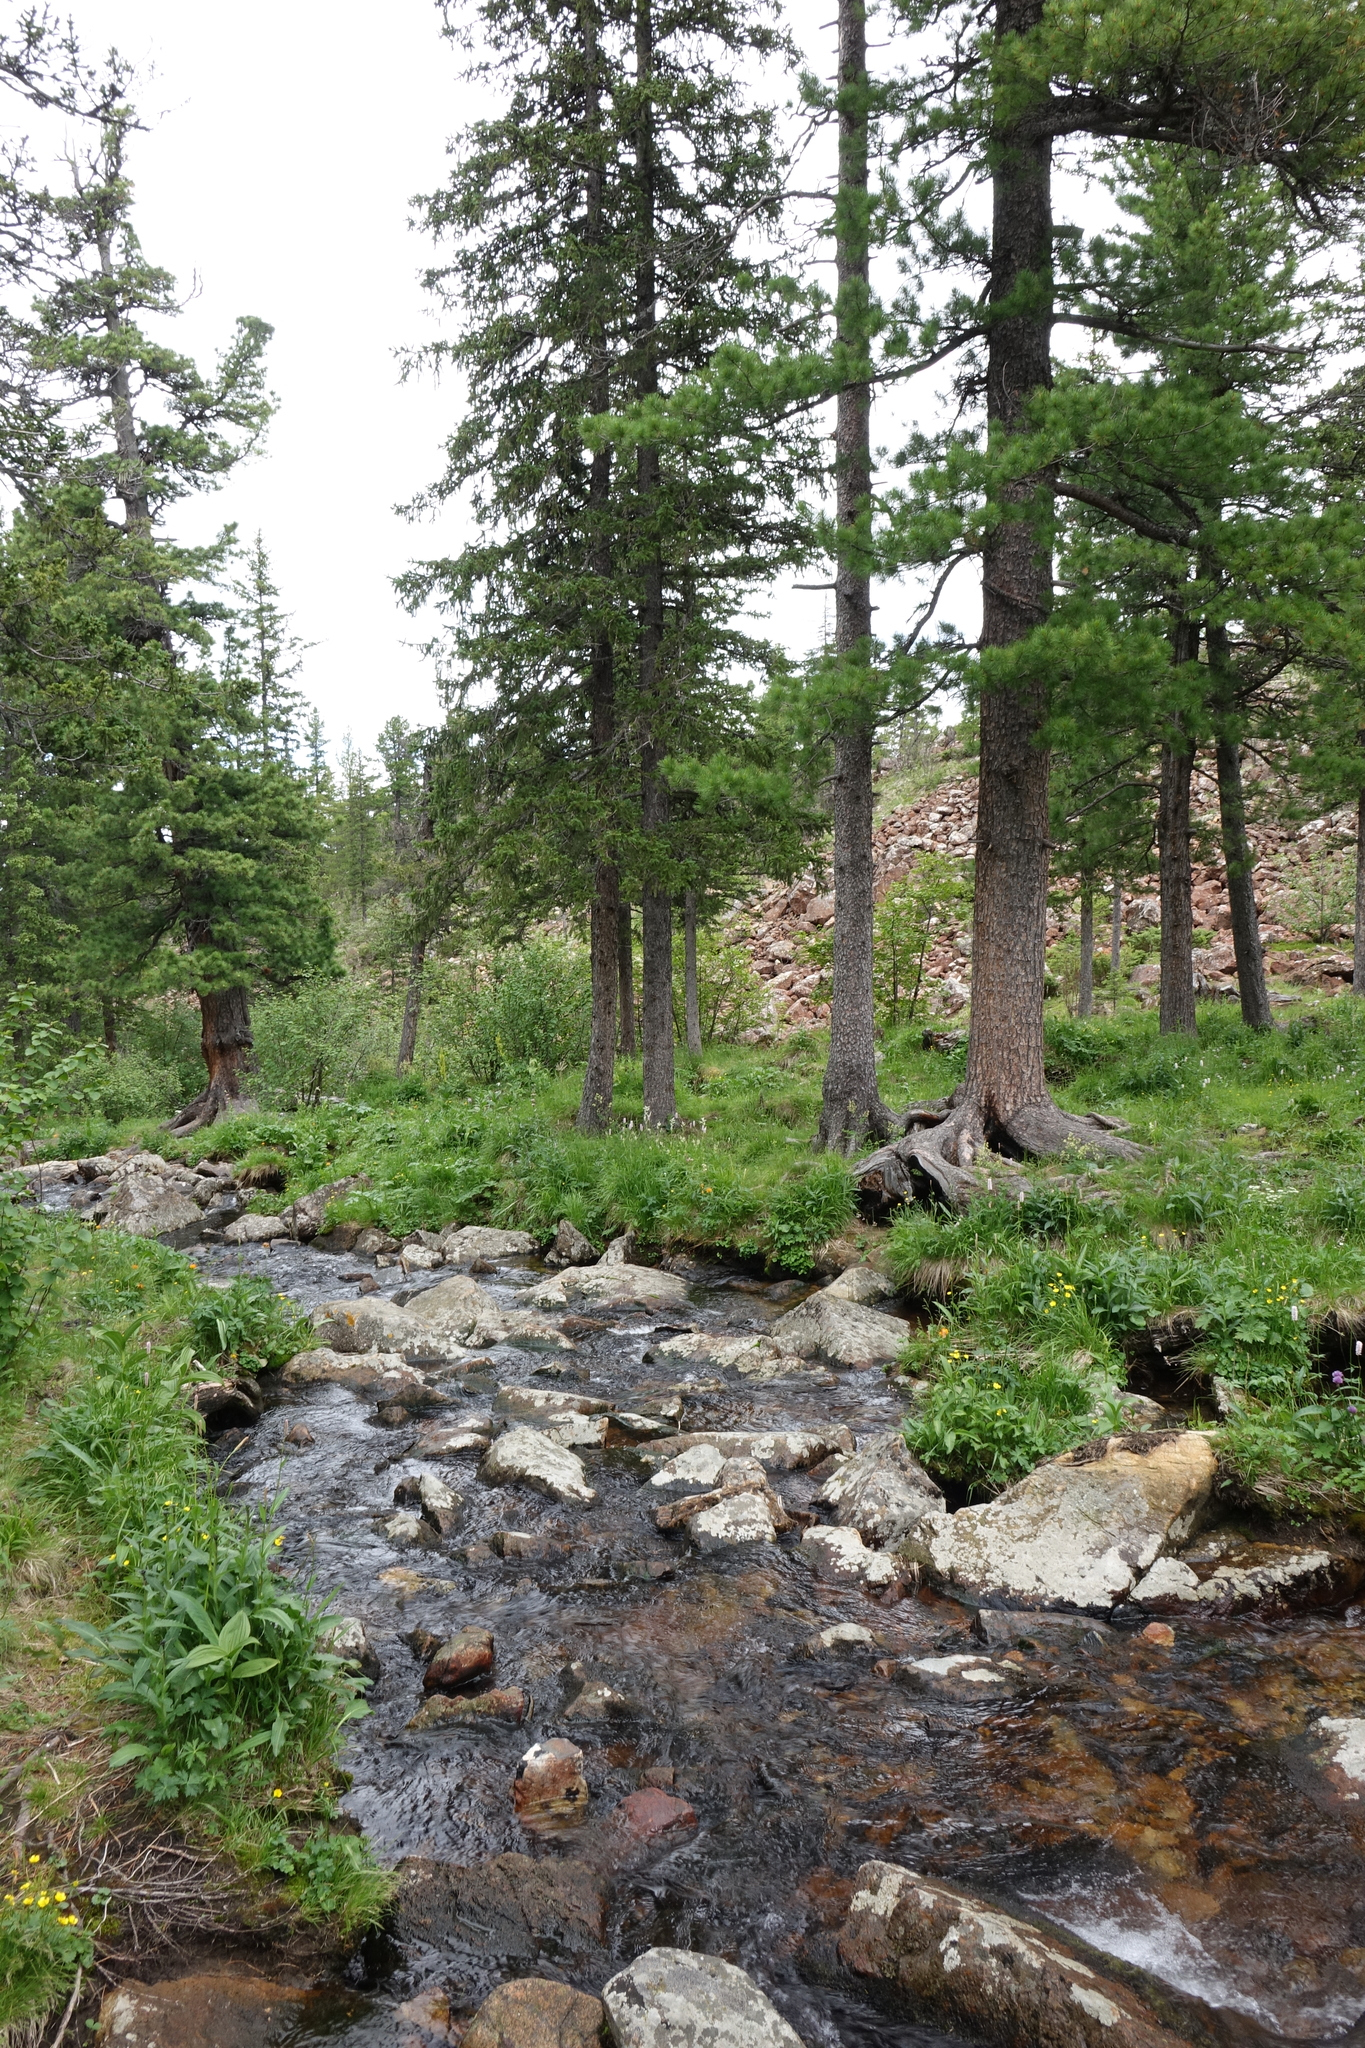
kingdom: Plantae
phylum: Tracheophyta
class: Pinopsida
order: Pinales
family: Pinaceae
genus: Picea
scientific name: Picea obovata
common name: Siberian spruce
